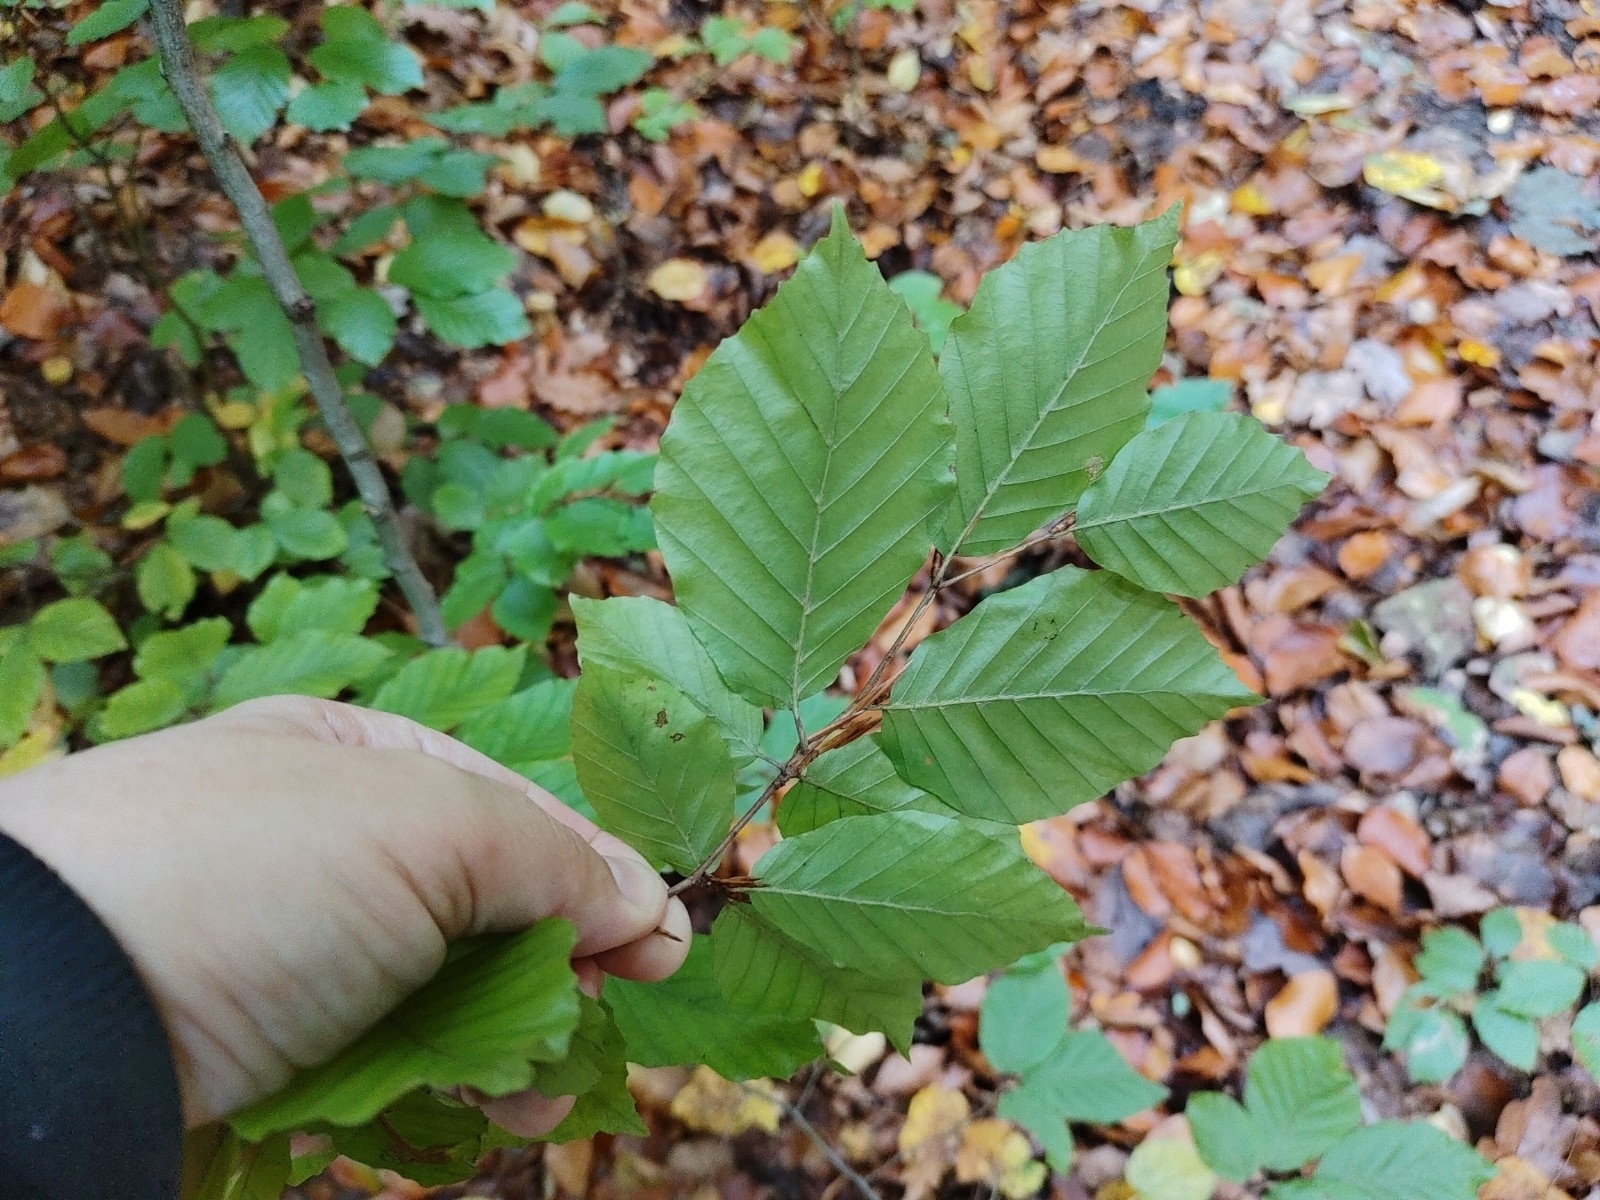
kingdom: Plantae
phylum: Tracheophyta
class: Magnoliopsida
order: Fagales
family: Fagaceae
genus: Fagus
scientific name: Fagus sylvatica
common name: Beech
